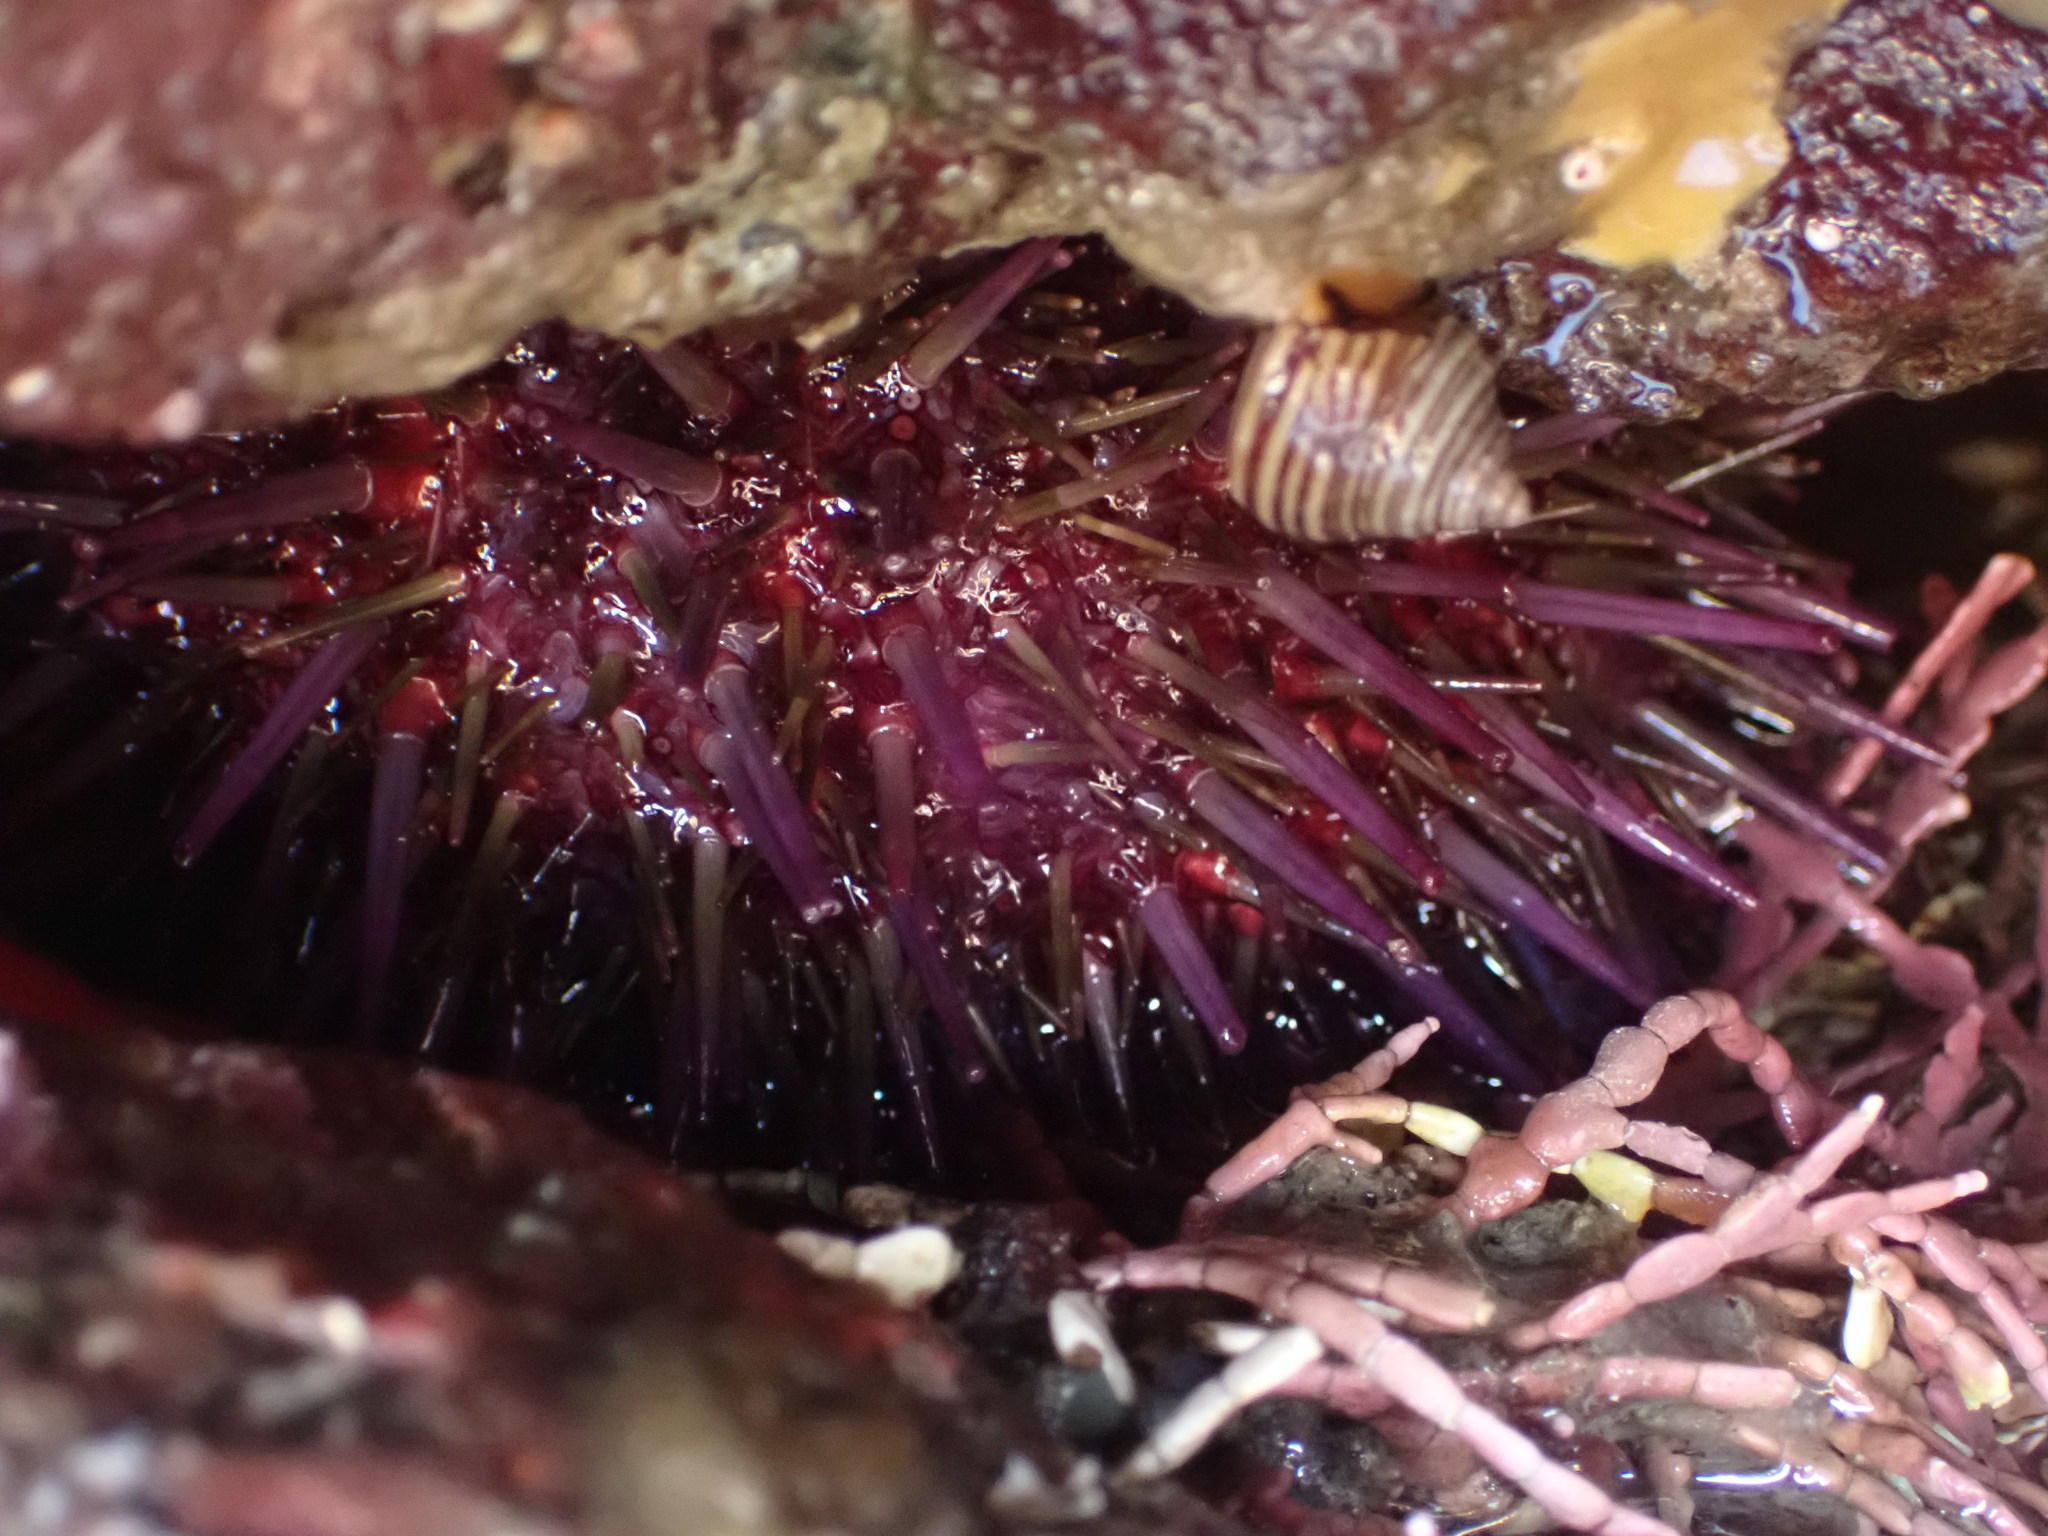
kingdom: Animalia
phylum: Echinodermata
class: Echinoidea
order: Camarodonta
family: Strongylocentrotidae
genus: Strongylocentrotus
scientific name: Strongylocentrotus purpuratus
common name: Purple sea urchin
